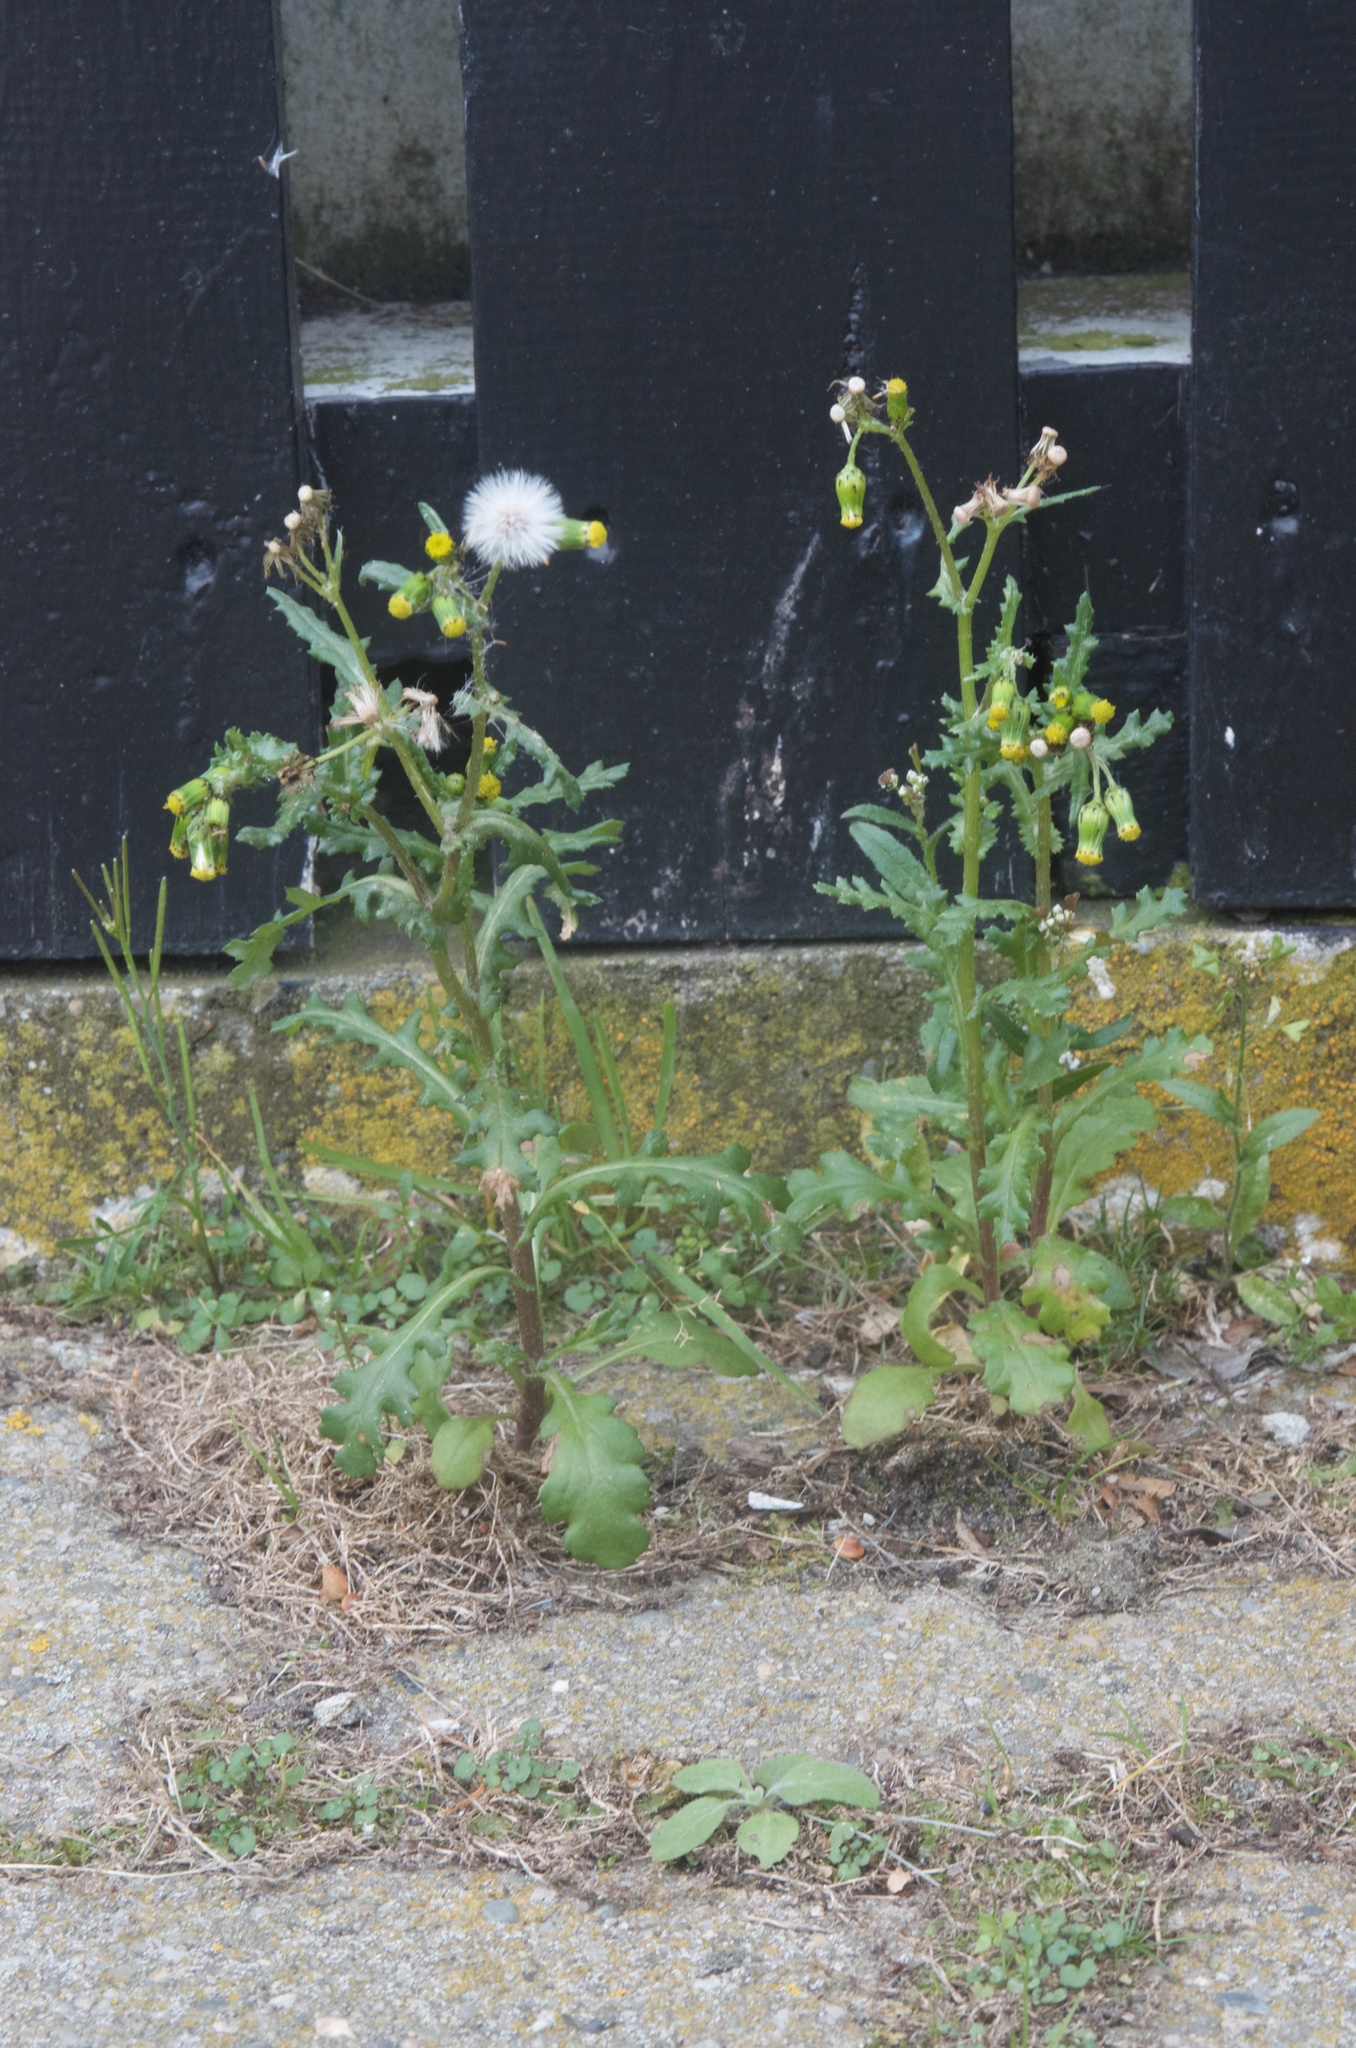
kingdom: Plantae
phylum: Tracheophyta
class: Magnoliopsida
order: Asterales
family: Asteraceae
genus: Senecio
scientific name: Senecio vulgaris
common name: Old-man-in-the-spring
